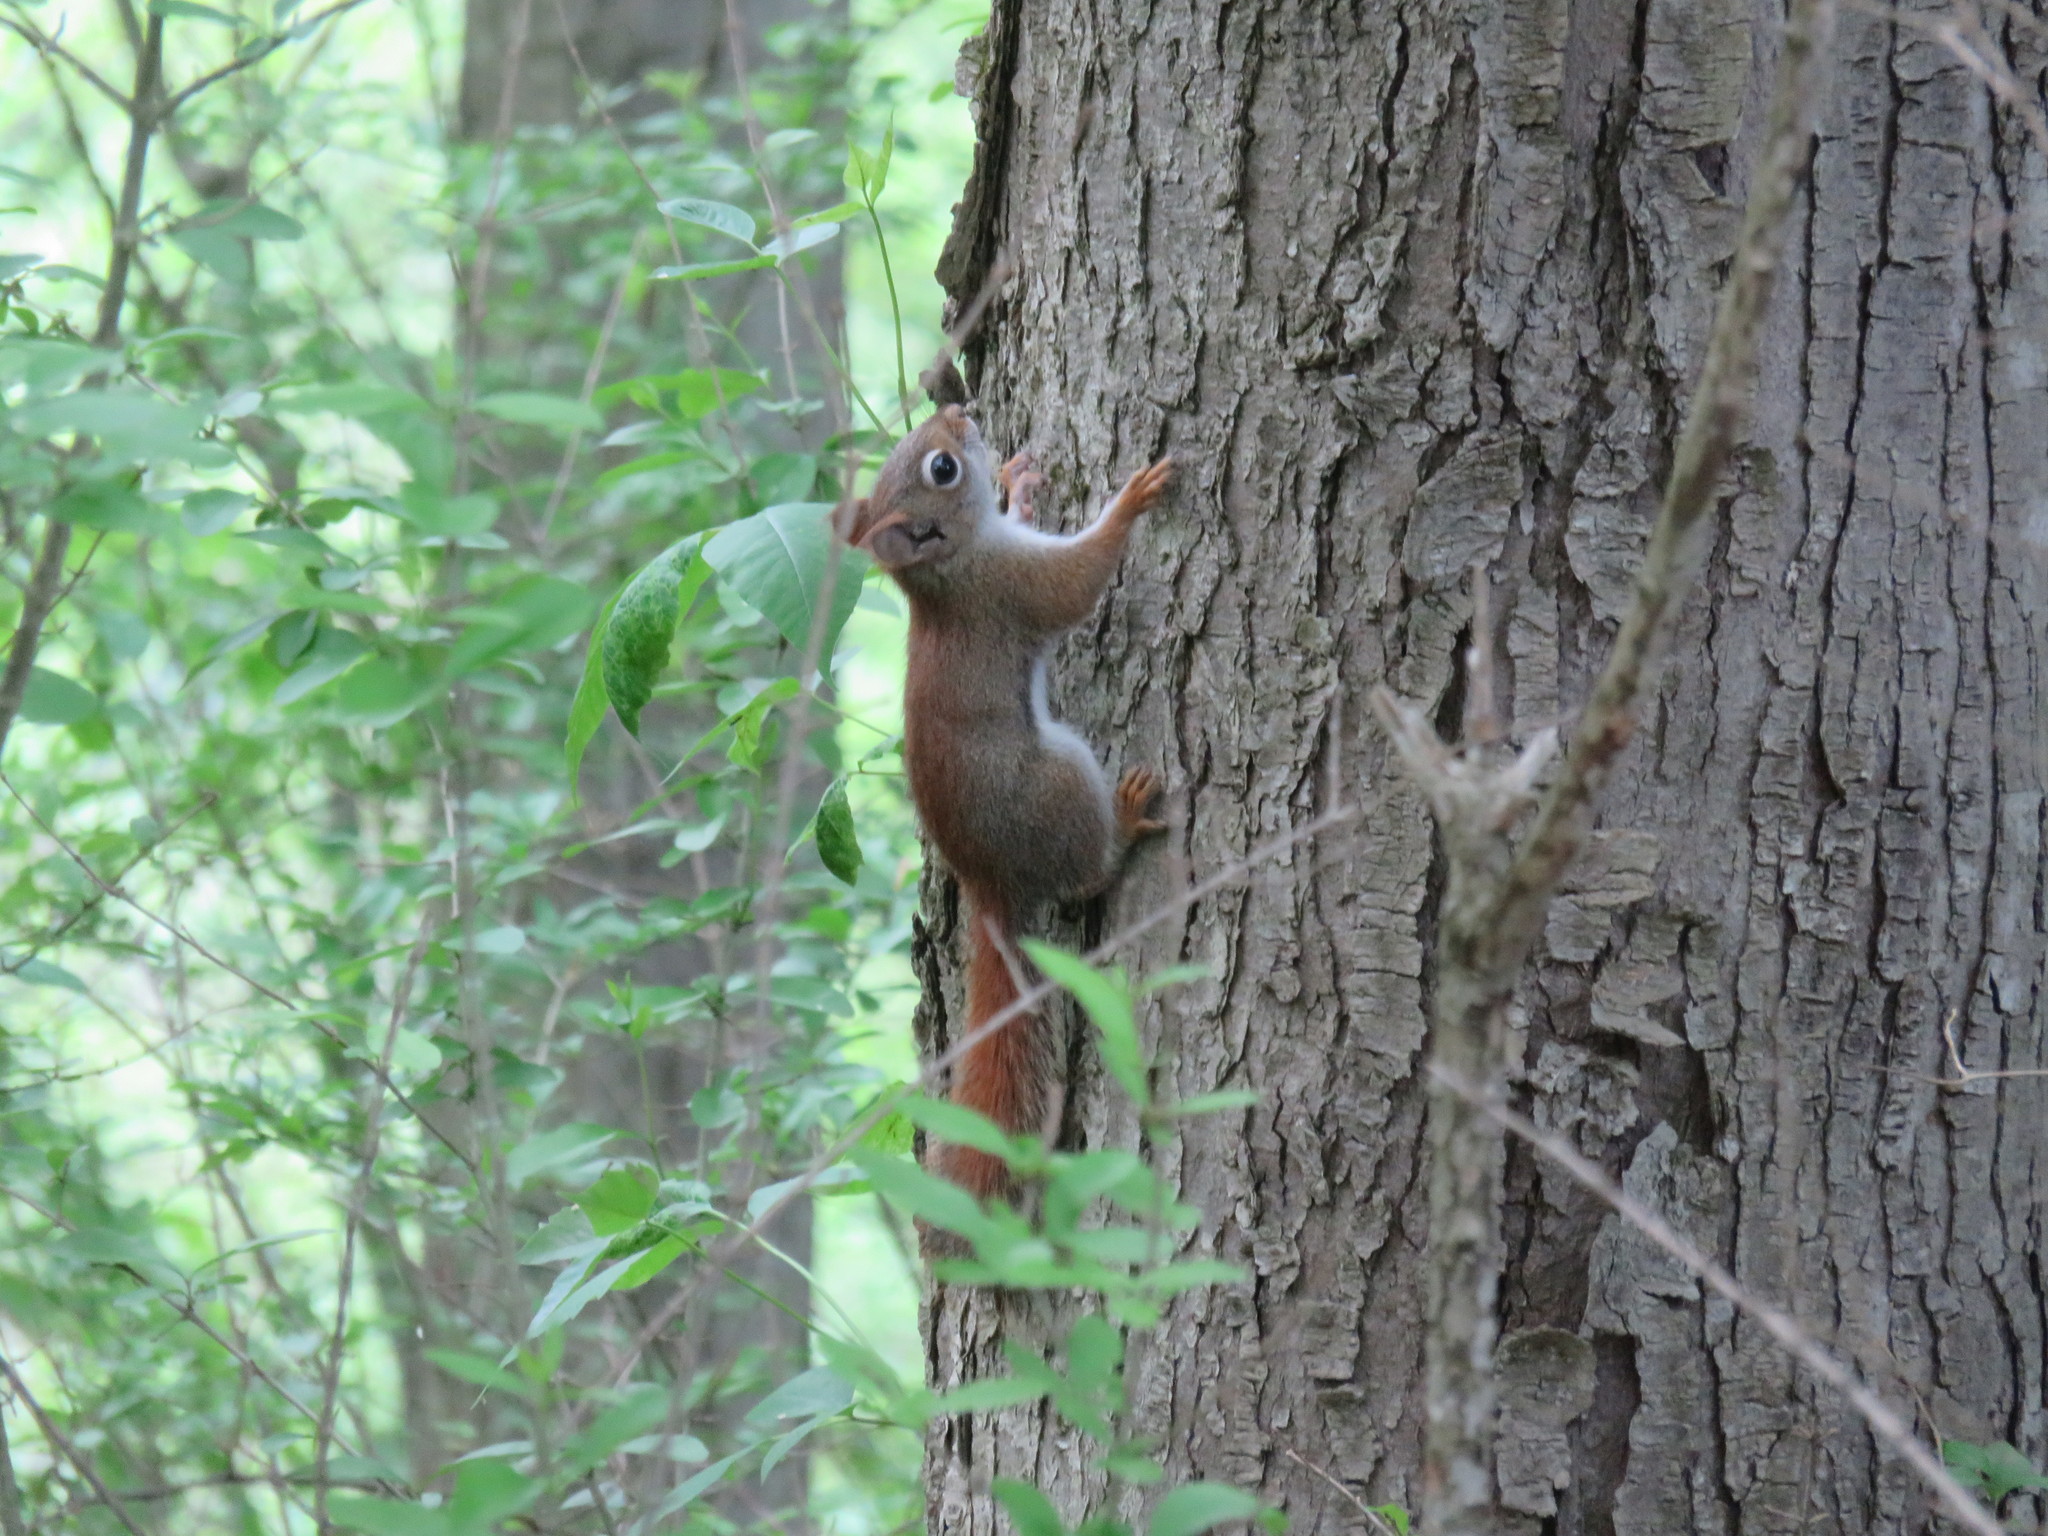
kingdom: Animalia
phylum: Chordata
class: Mammalia
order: Rodentia
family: Sciuridae
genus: Tamiasciurus
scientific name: Tamiasciurus hudsonicus
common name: Red squirrel
